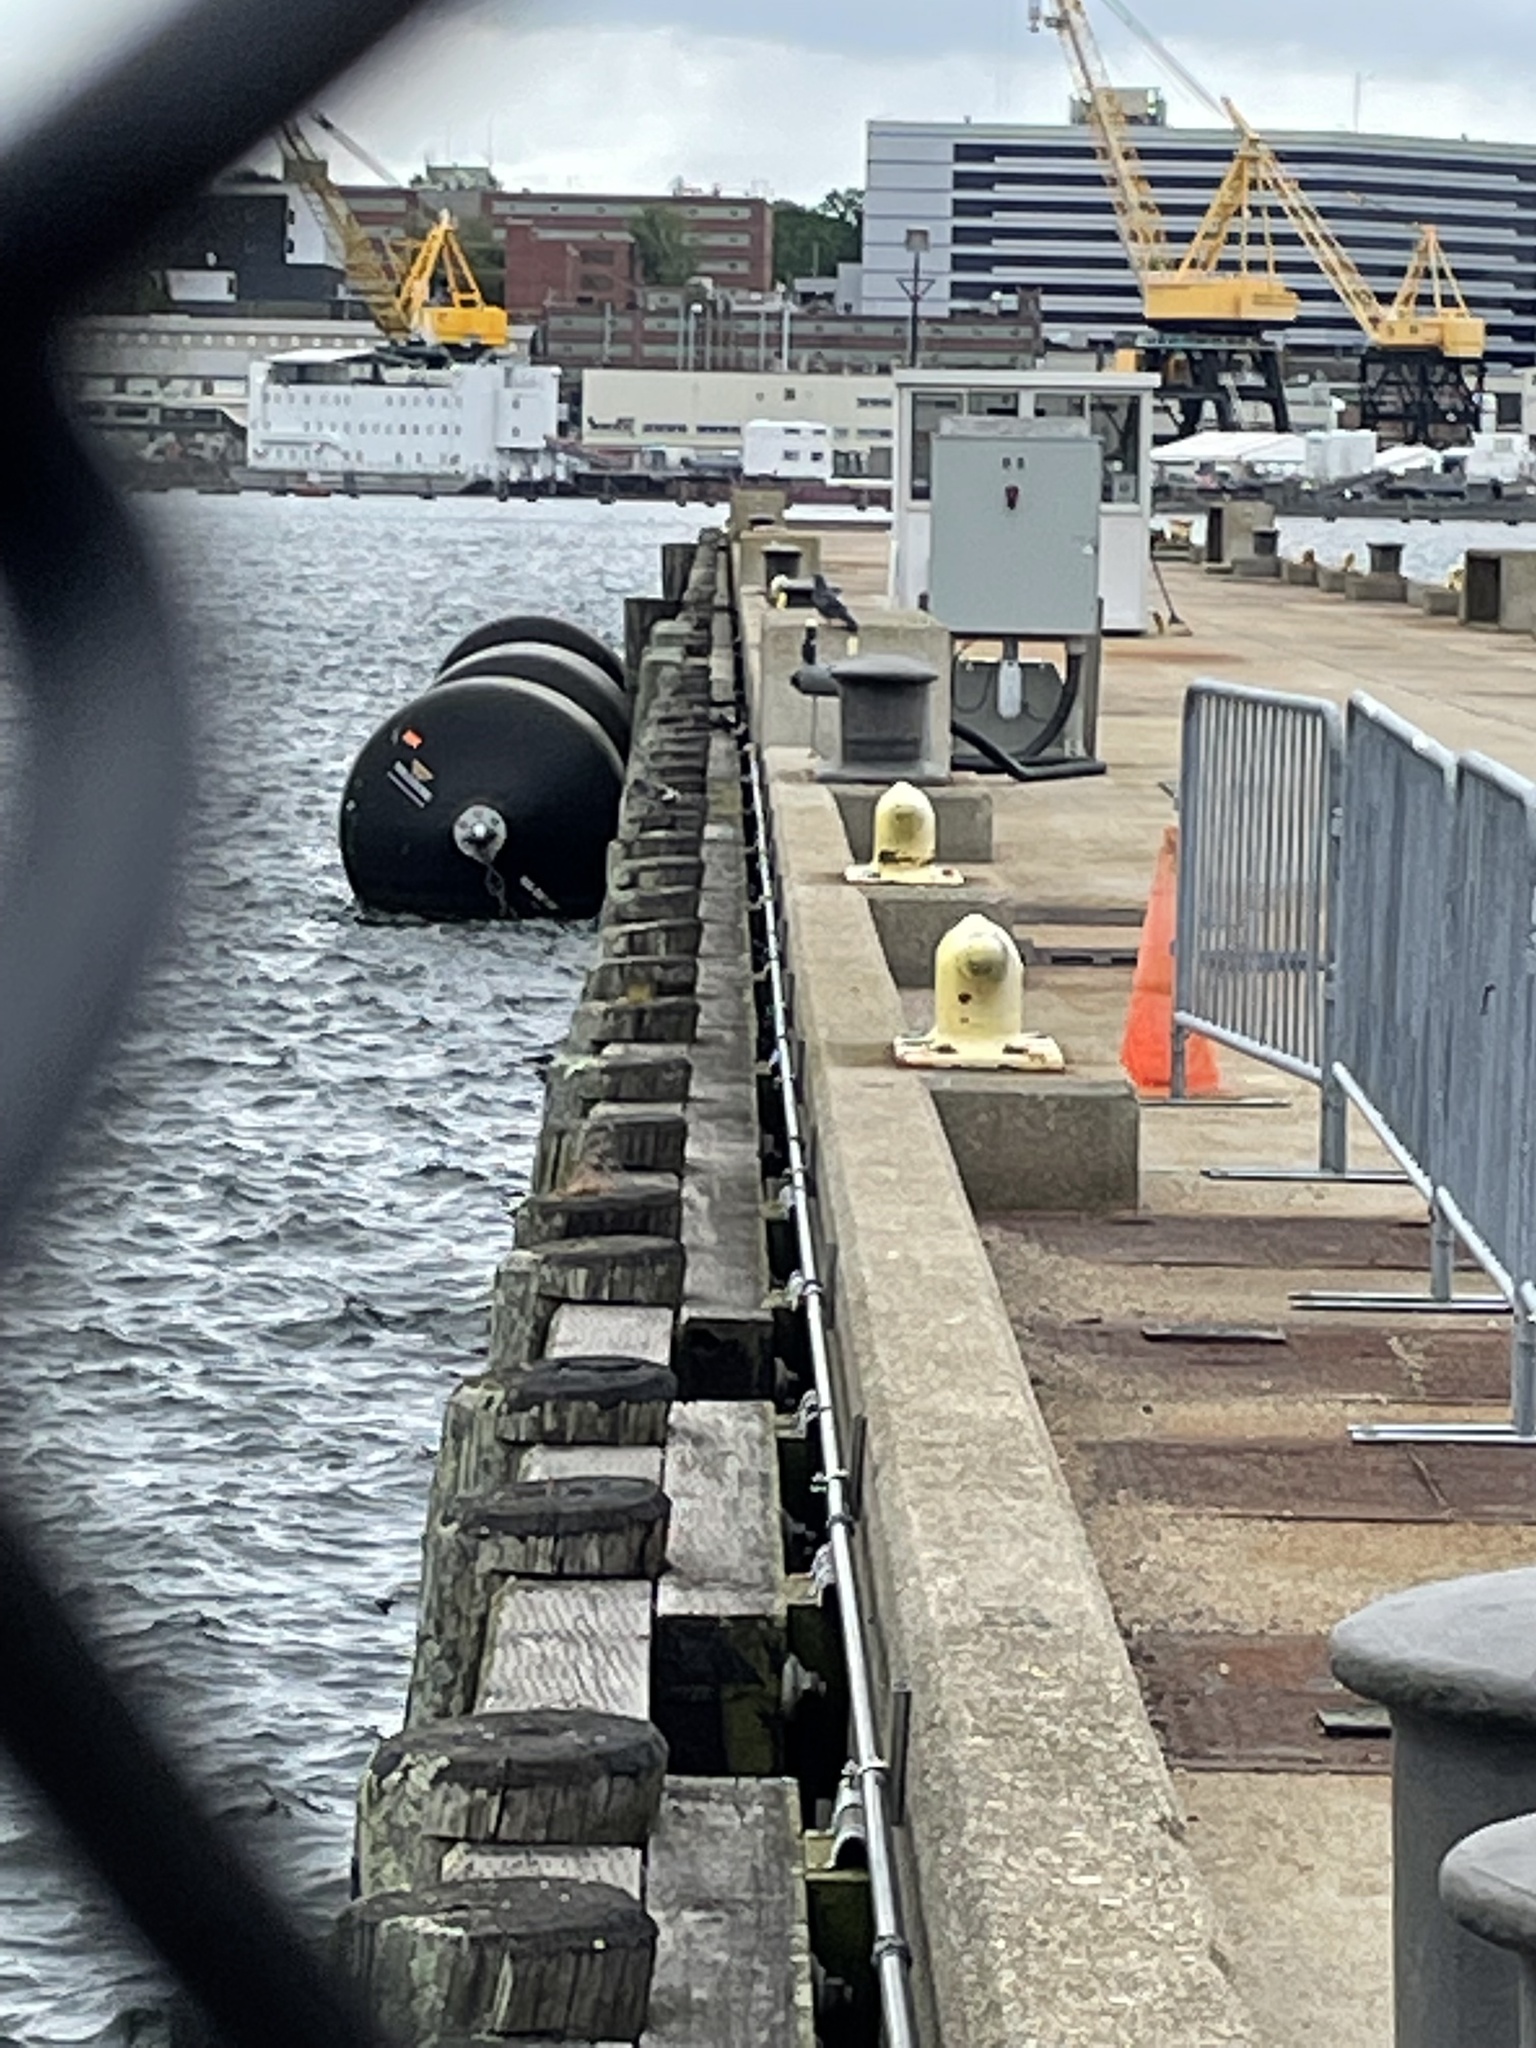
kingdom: Animalia
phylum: Chordata
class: Aves
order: Columbiformes
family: Columbidae
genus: Columba
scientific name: Columba livia
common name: Rock pigeon
